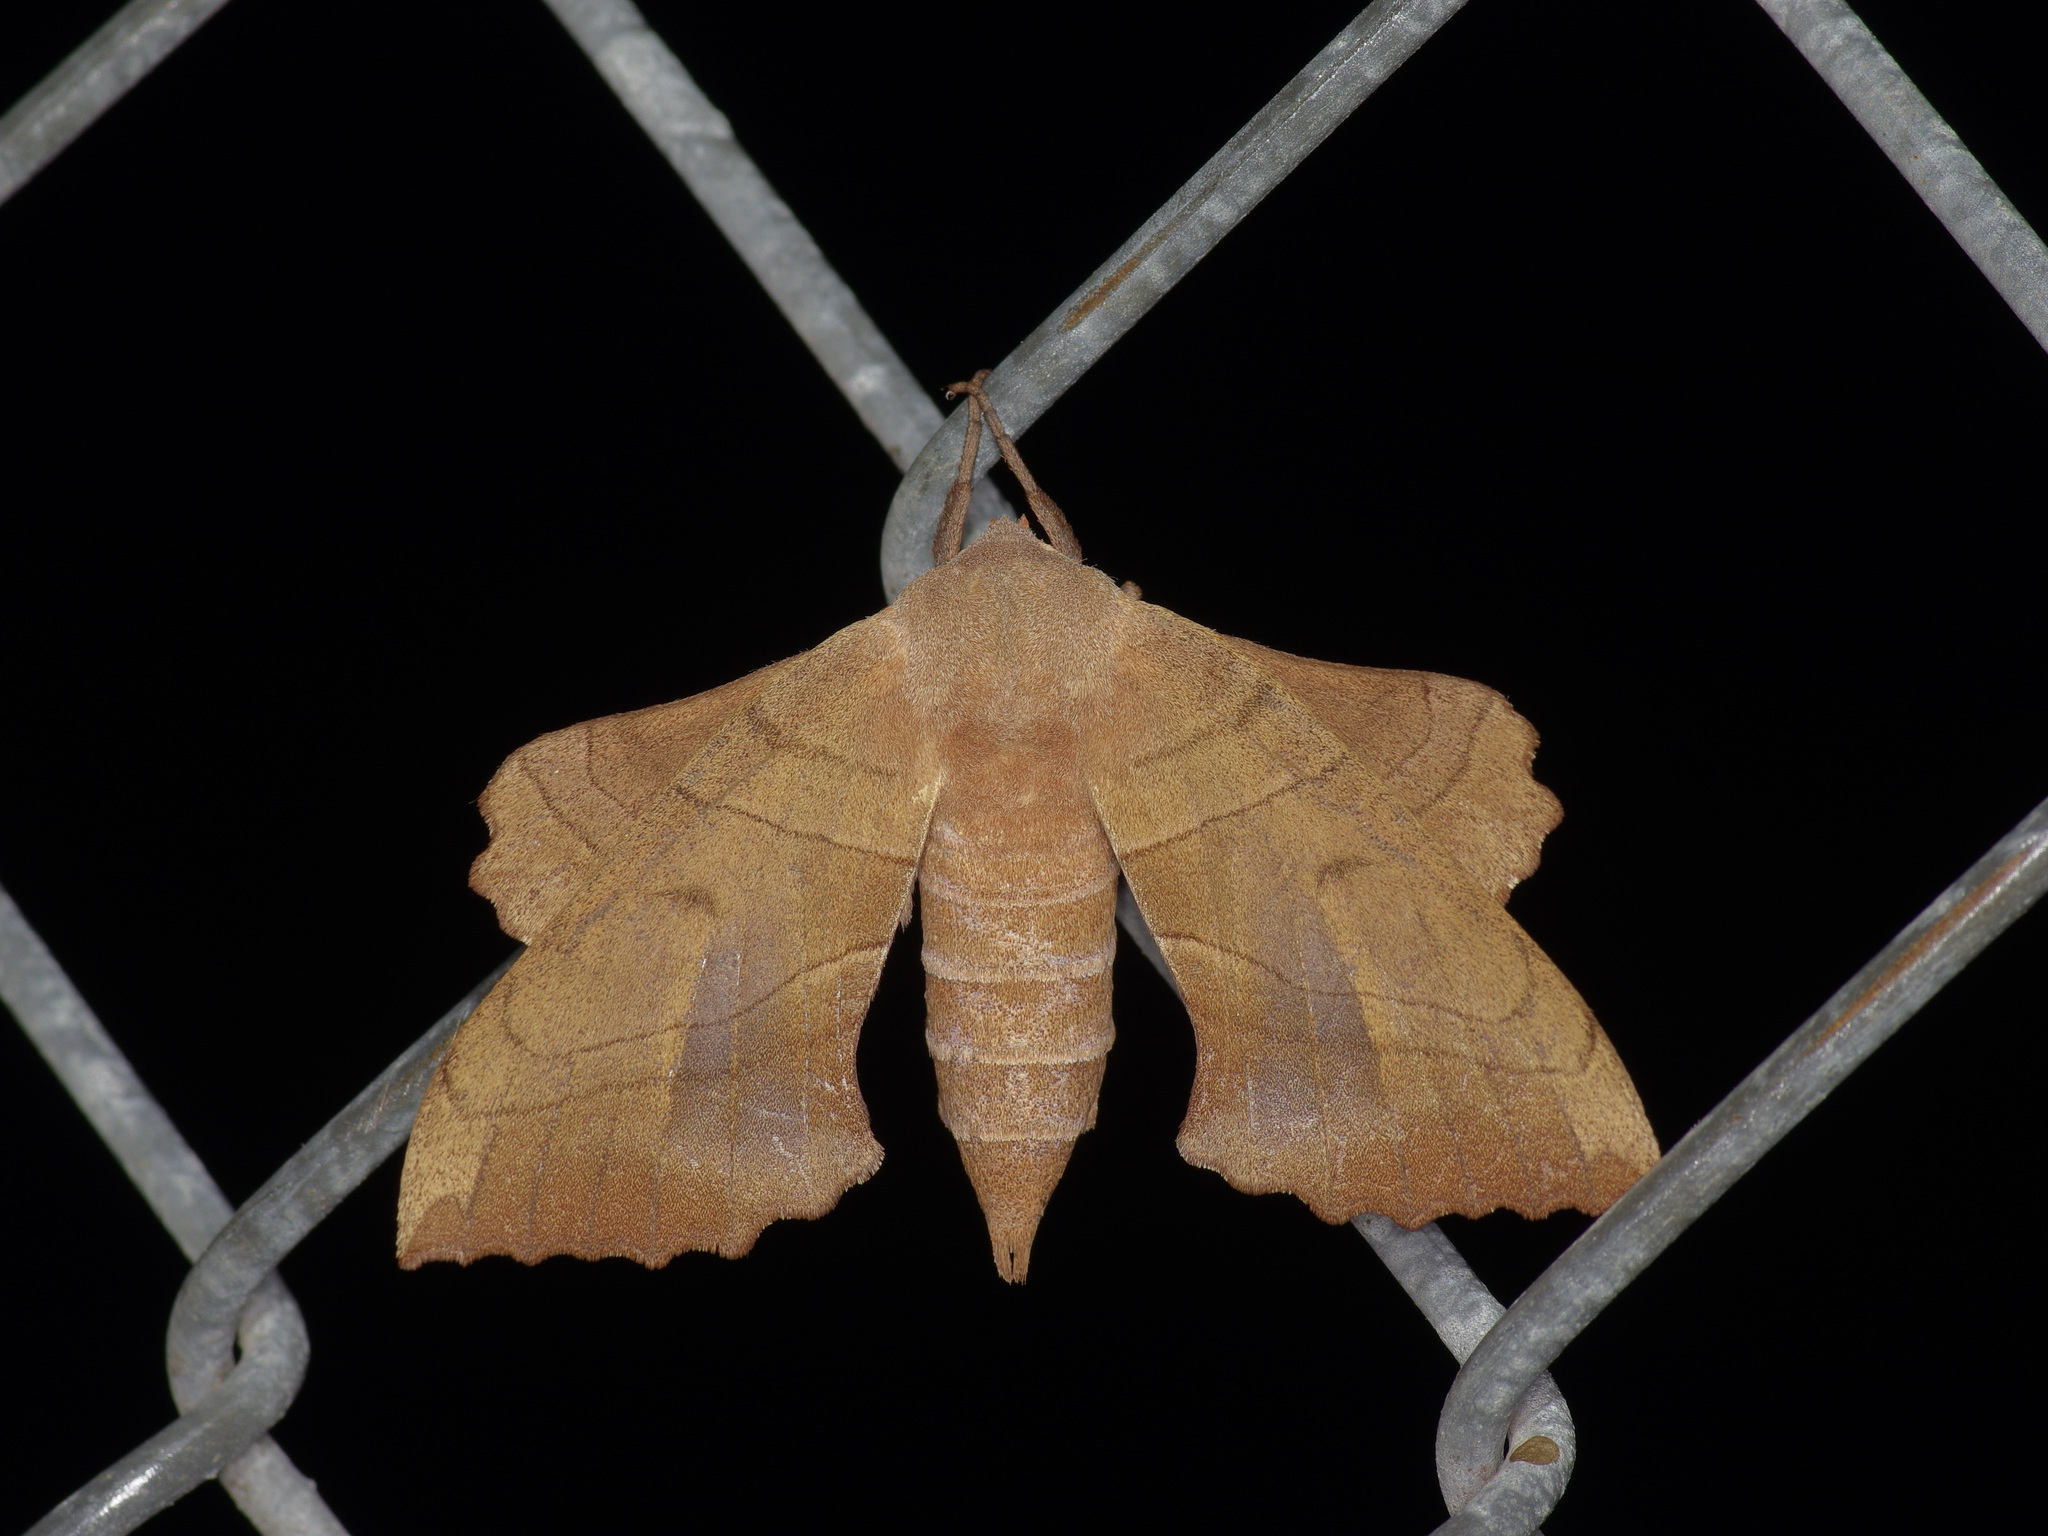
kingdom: Animalia
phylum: Arthropoda
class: Insecta
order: Lepidoptera
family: Sphingidae
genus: Amorpha
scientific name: Amorpha juglandis
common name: Walnut sphinx
